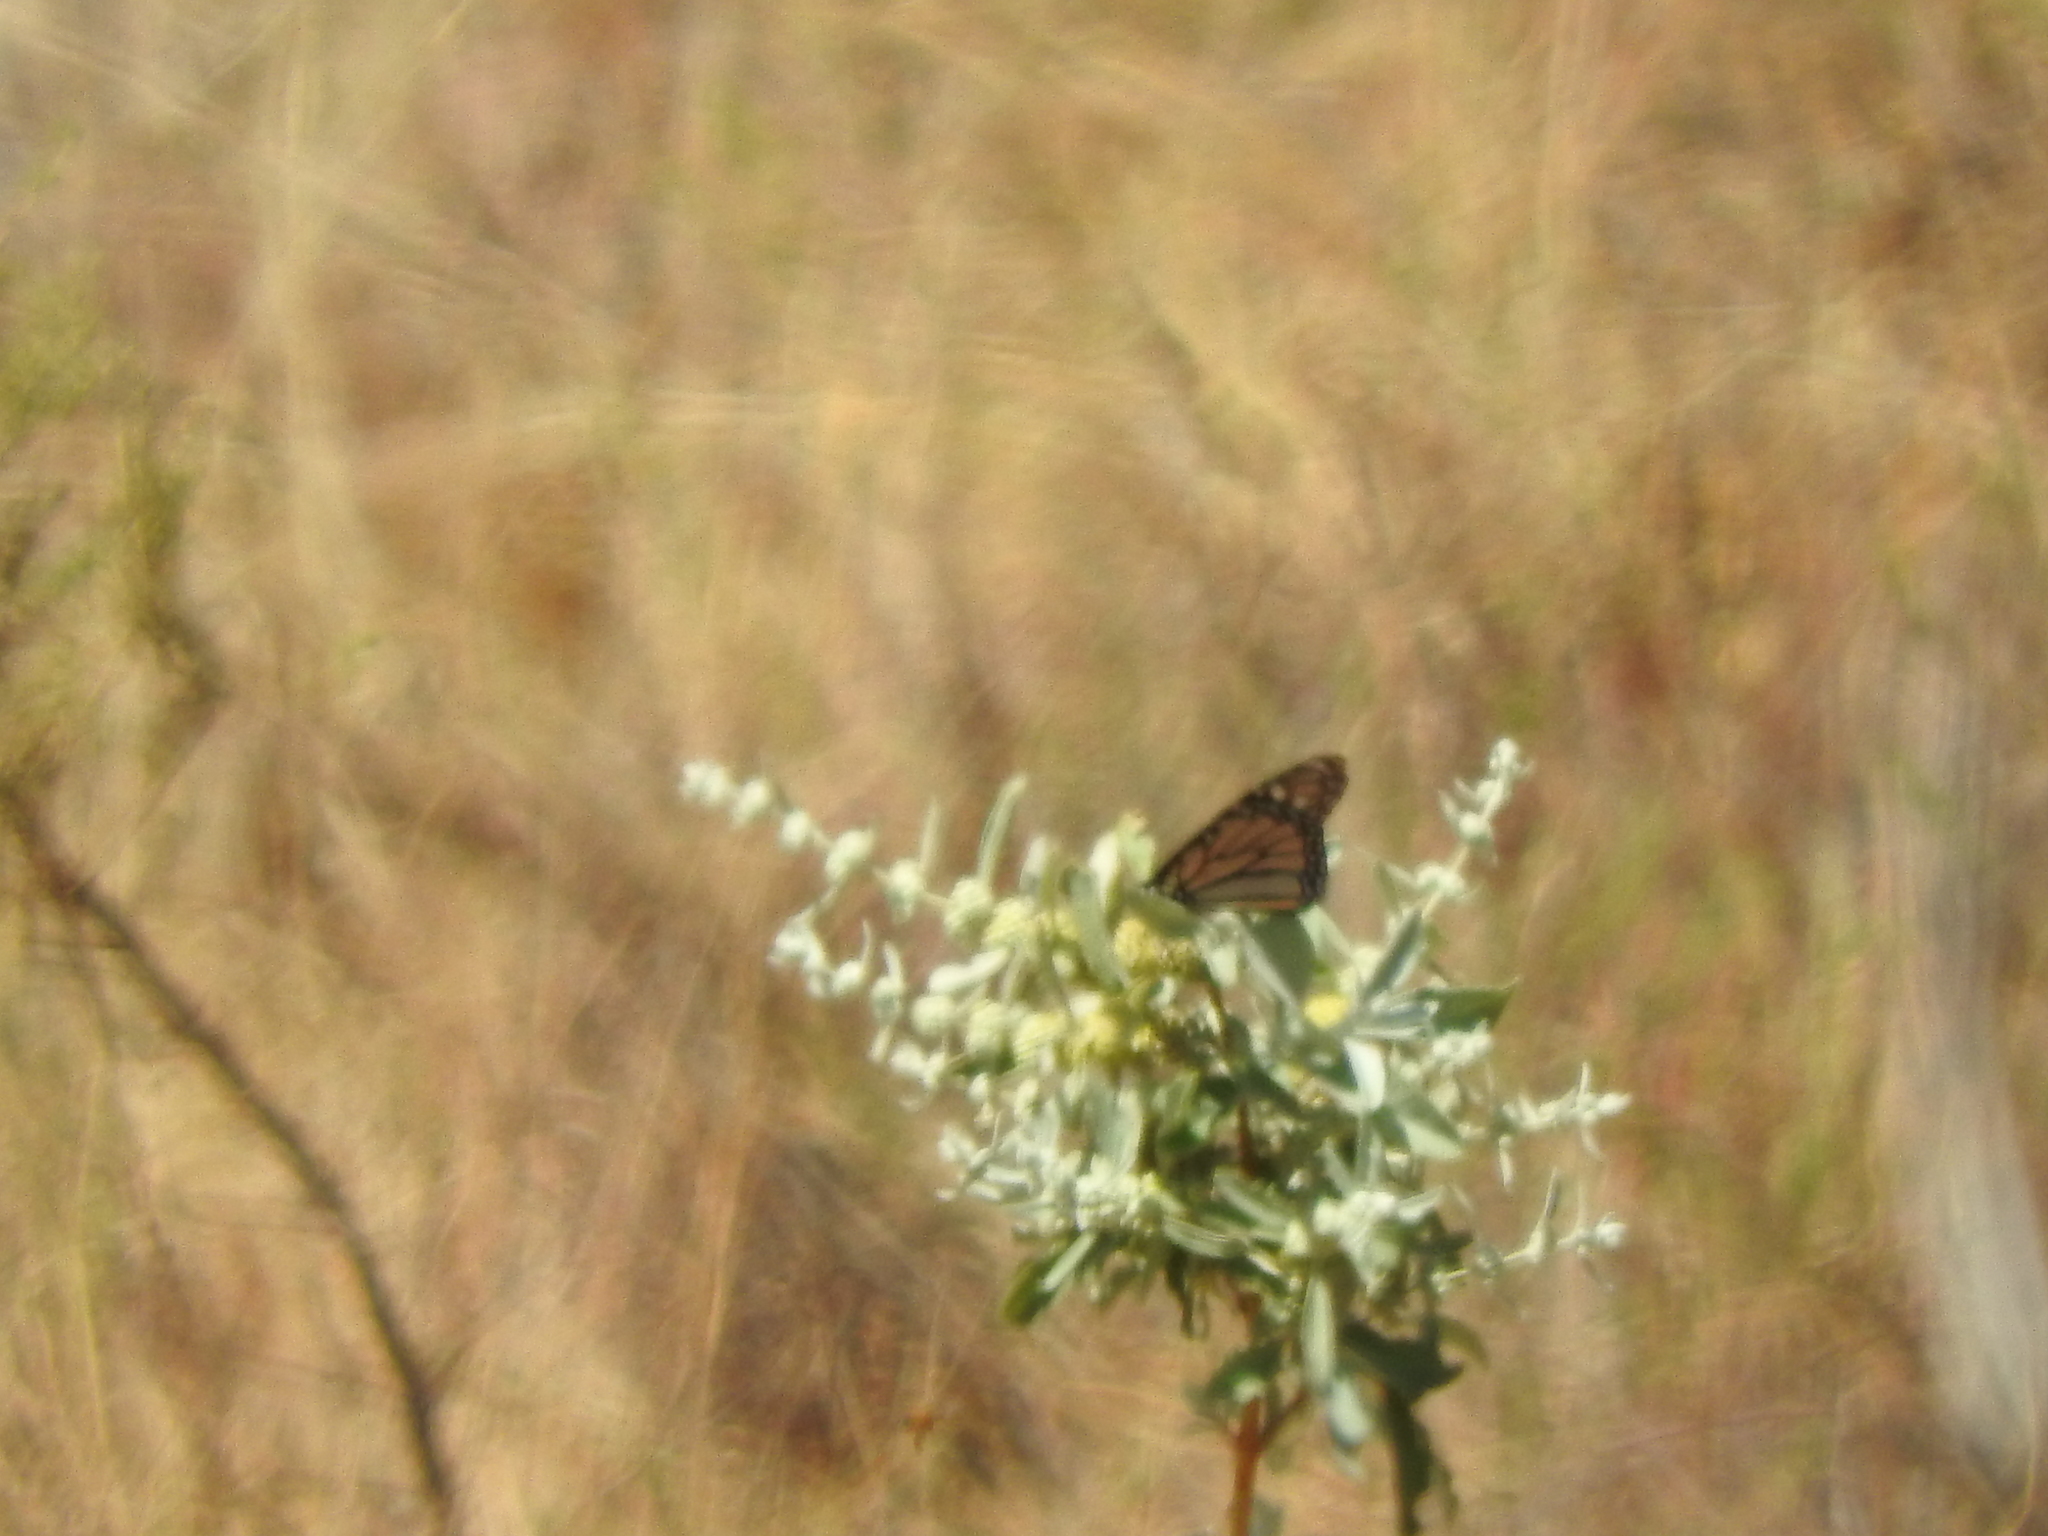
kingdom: Animalia
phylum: Arthropoda
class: Insecta
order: Lepidoptera
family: Nymphalidae
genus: Danaus
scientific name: Danaus plexippus
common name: Monarch
